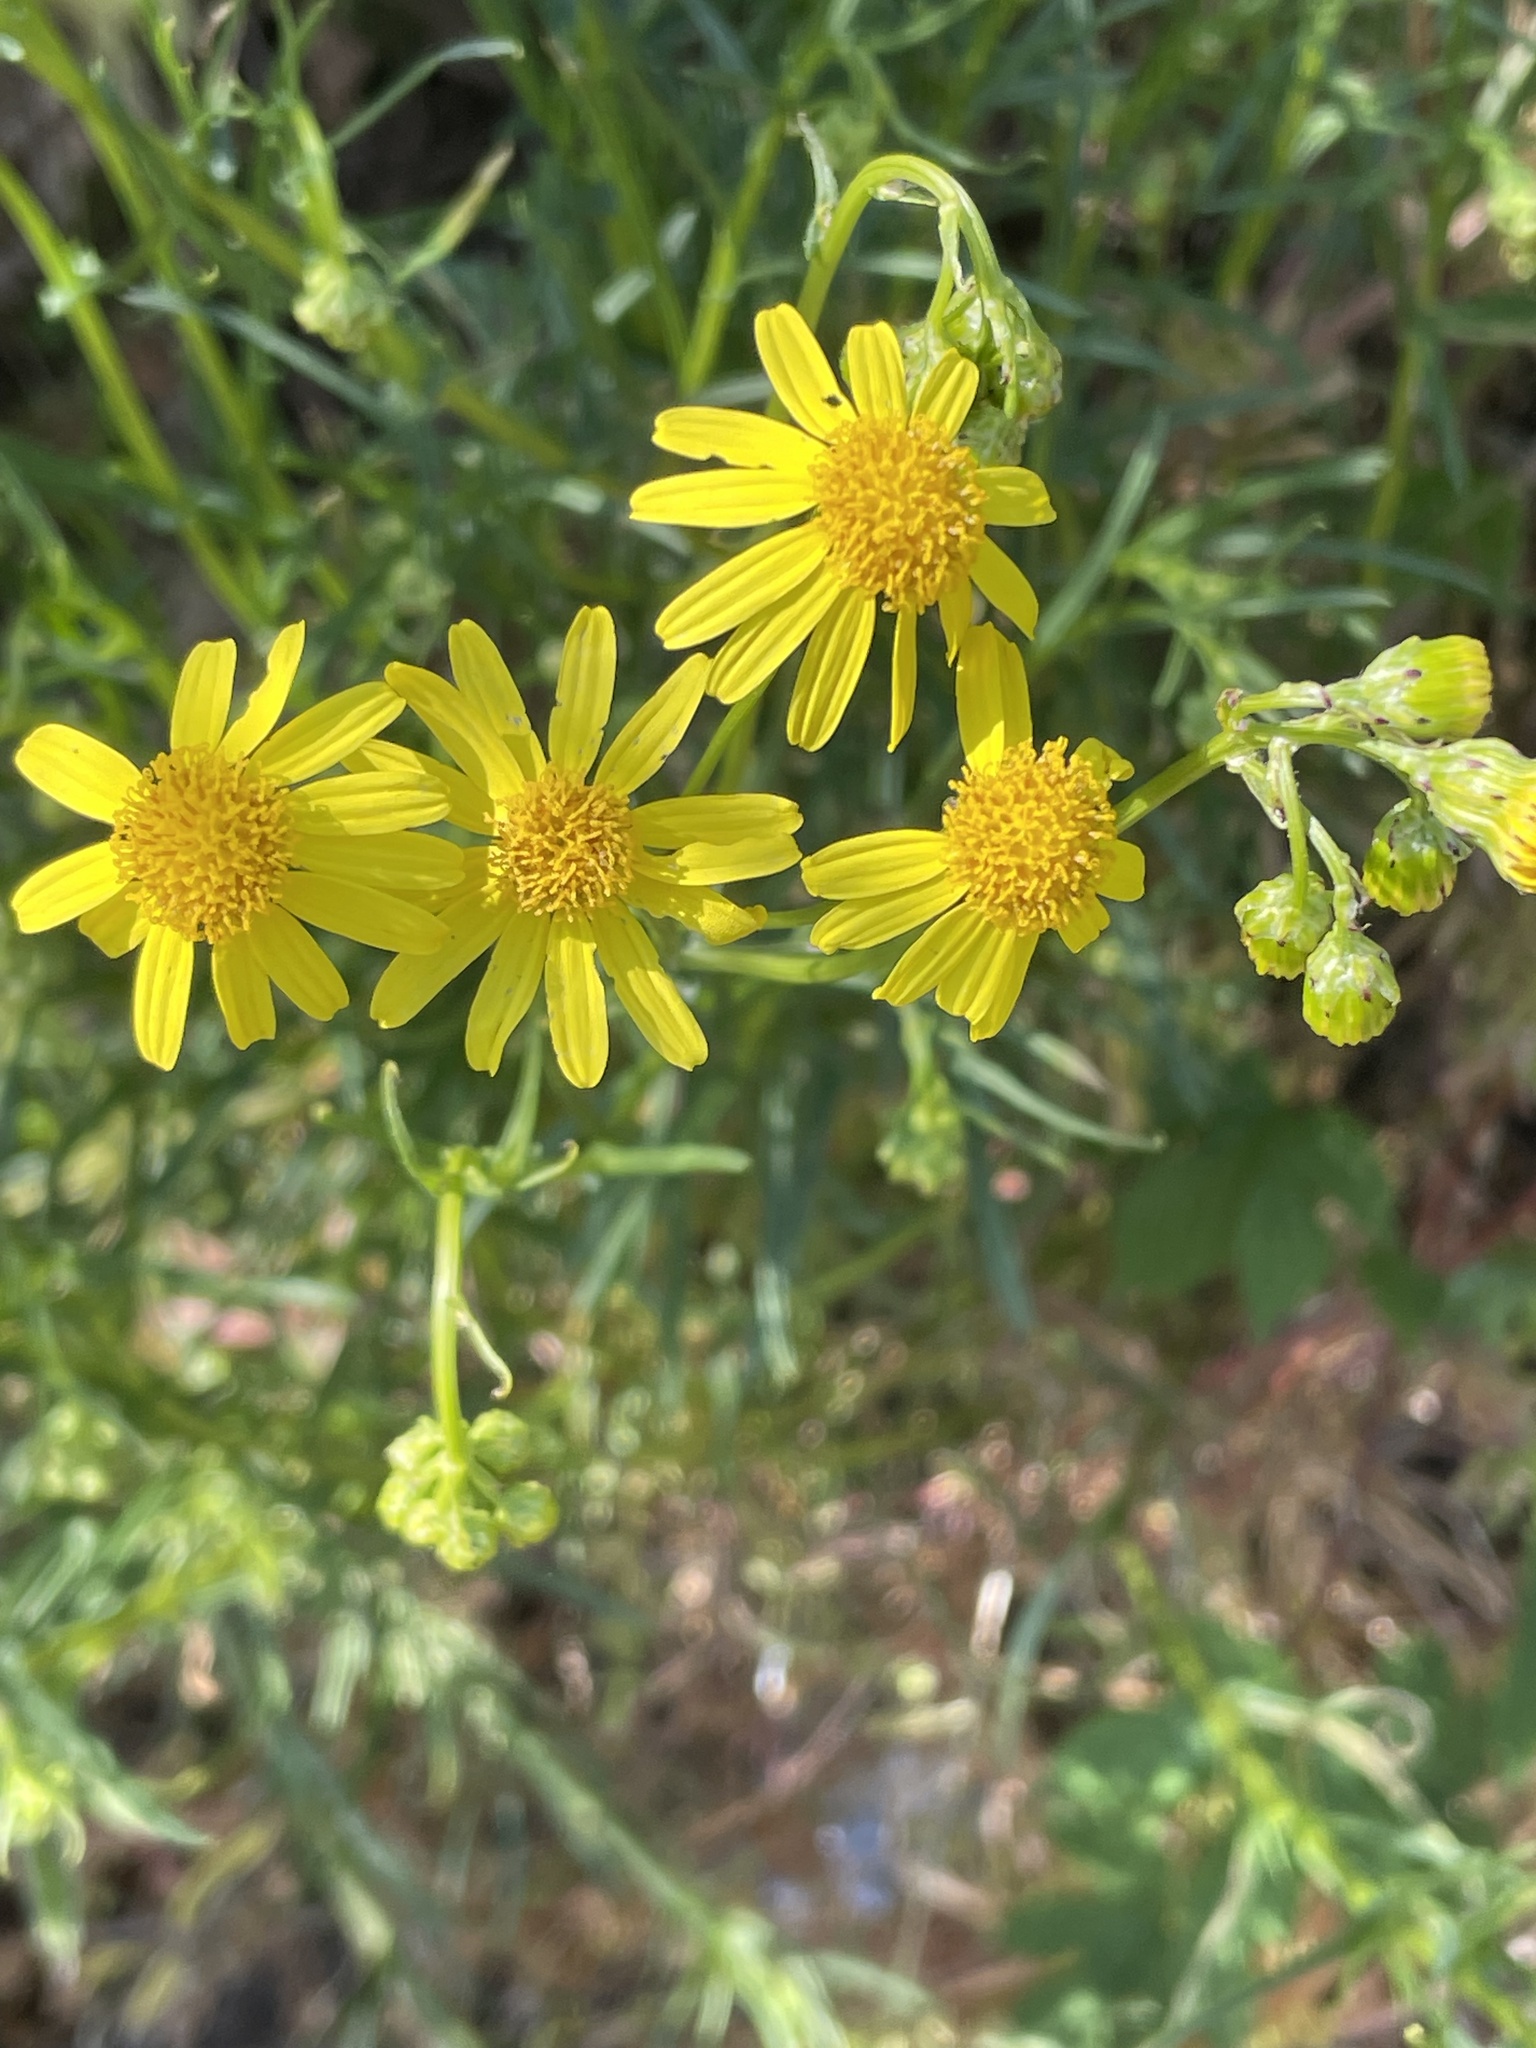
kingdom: Plantae
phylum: Tracheophyta
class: Magnoliopsida
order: Asterales
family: Asteraceae
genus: Senecio
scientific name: Senecio inaequidens
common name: Narrow-leaved ragwort
